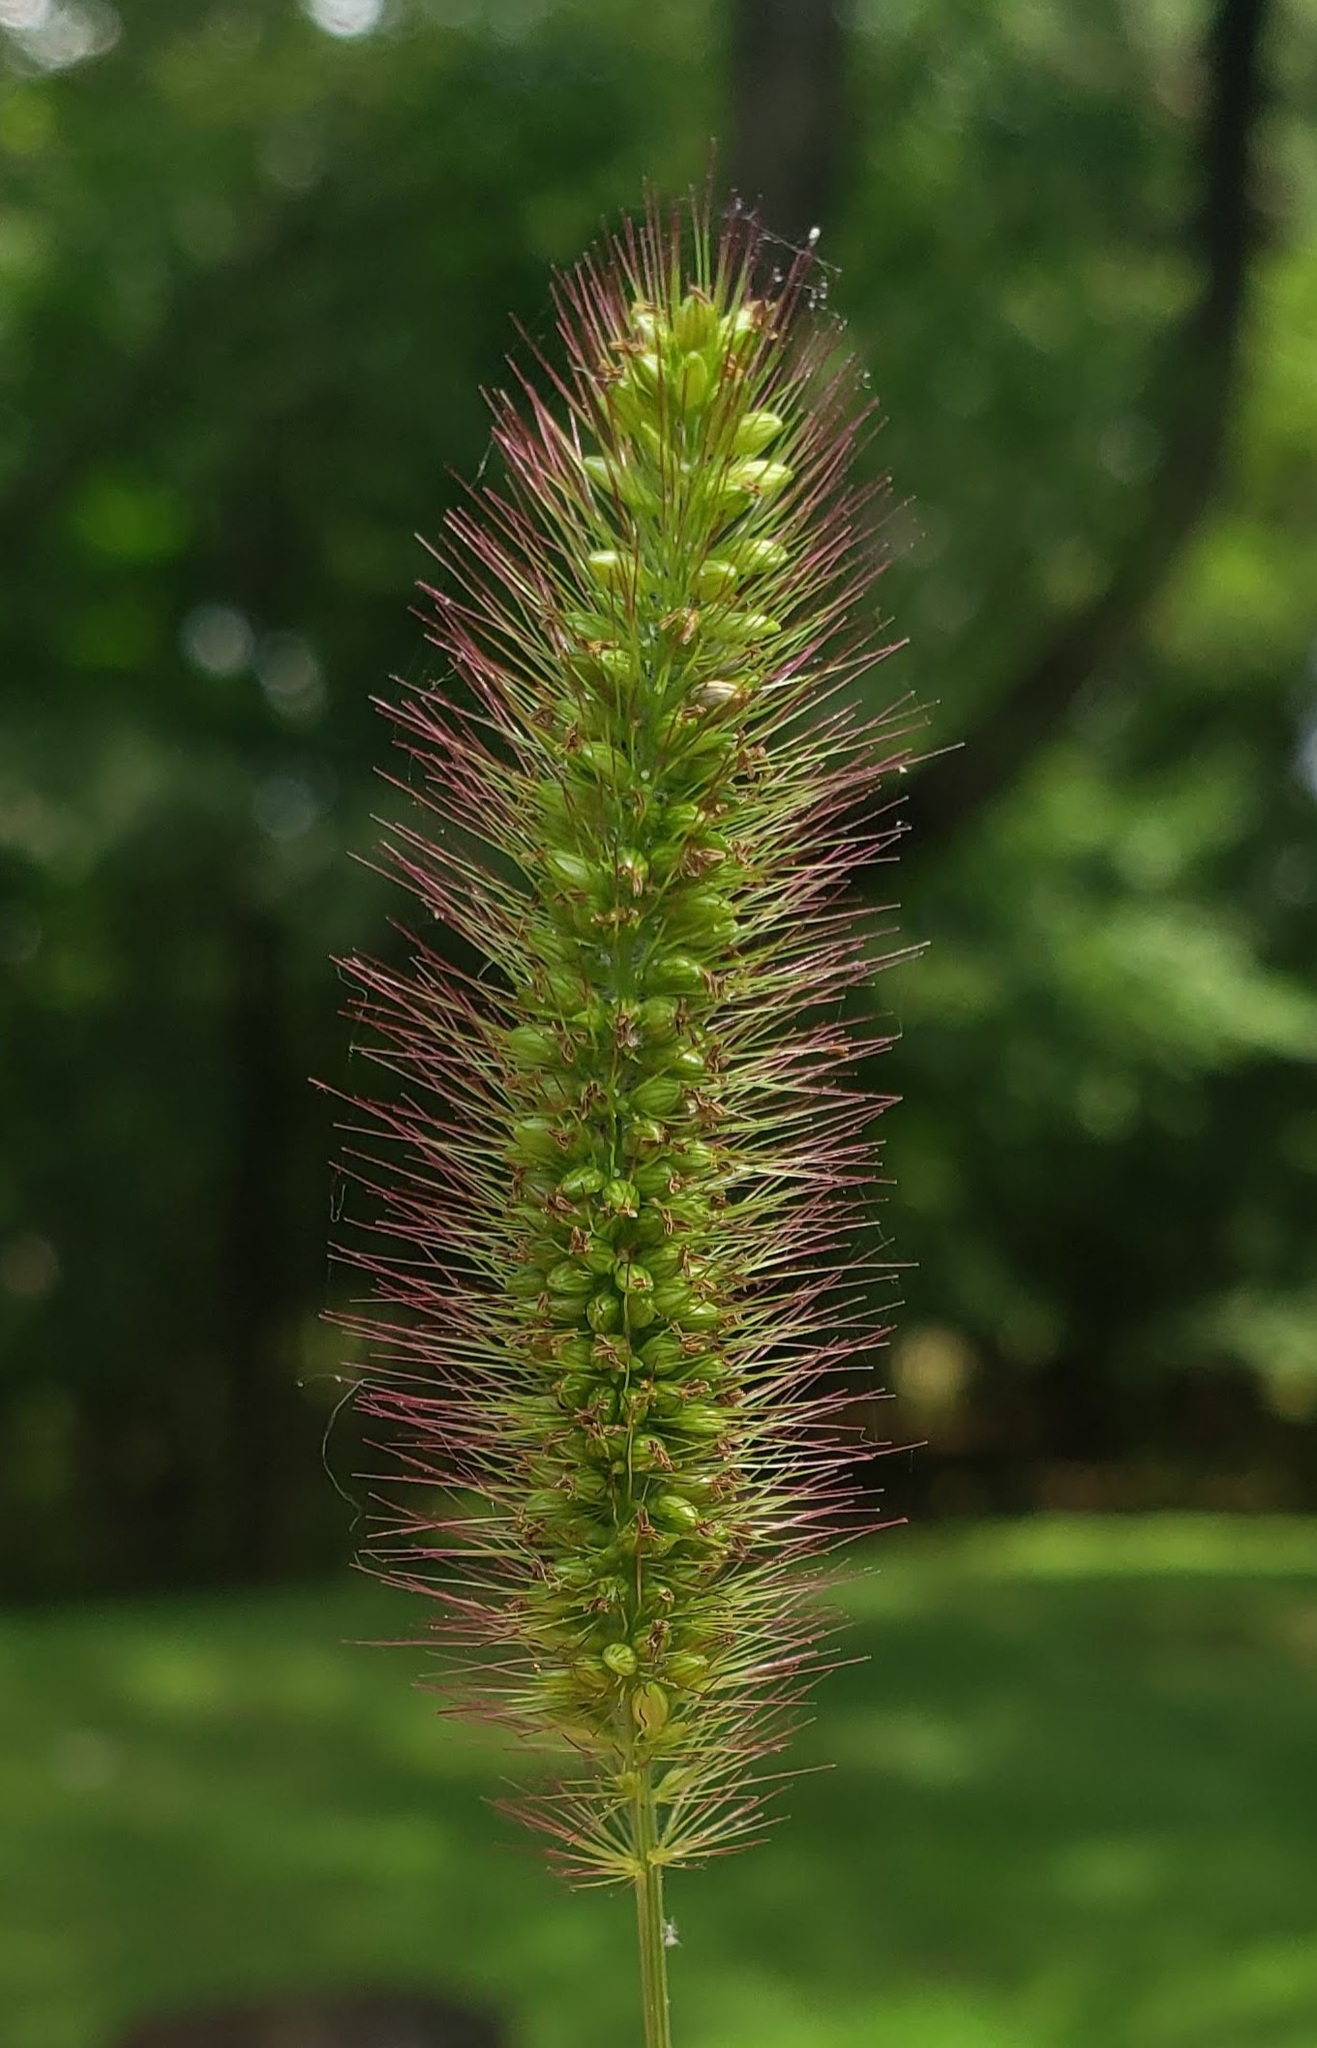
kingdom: Plantae
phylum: Tracheophyta
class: Liliopsida
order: Poales
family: Poaceae
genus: Setaria
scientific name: Setaria viridis
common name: Green bristlegrass
